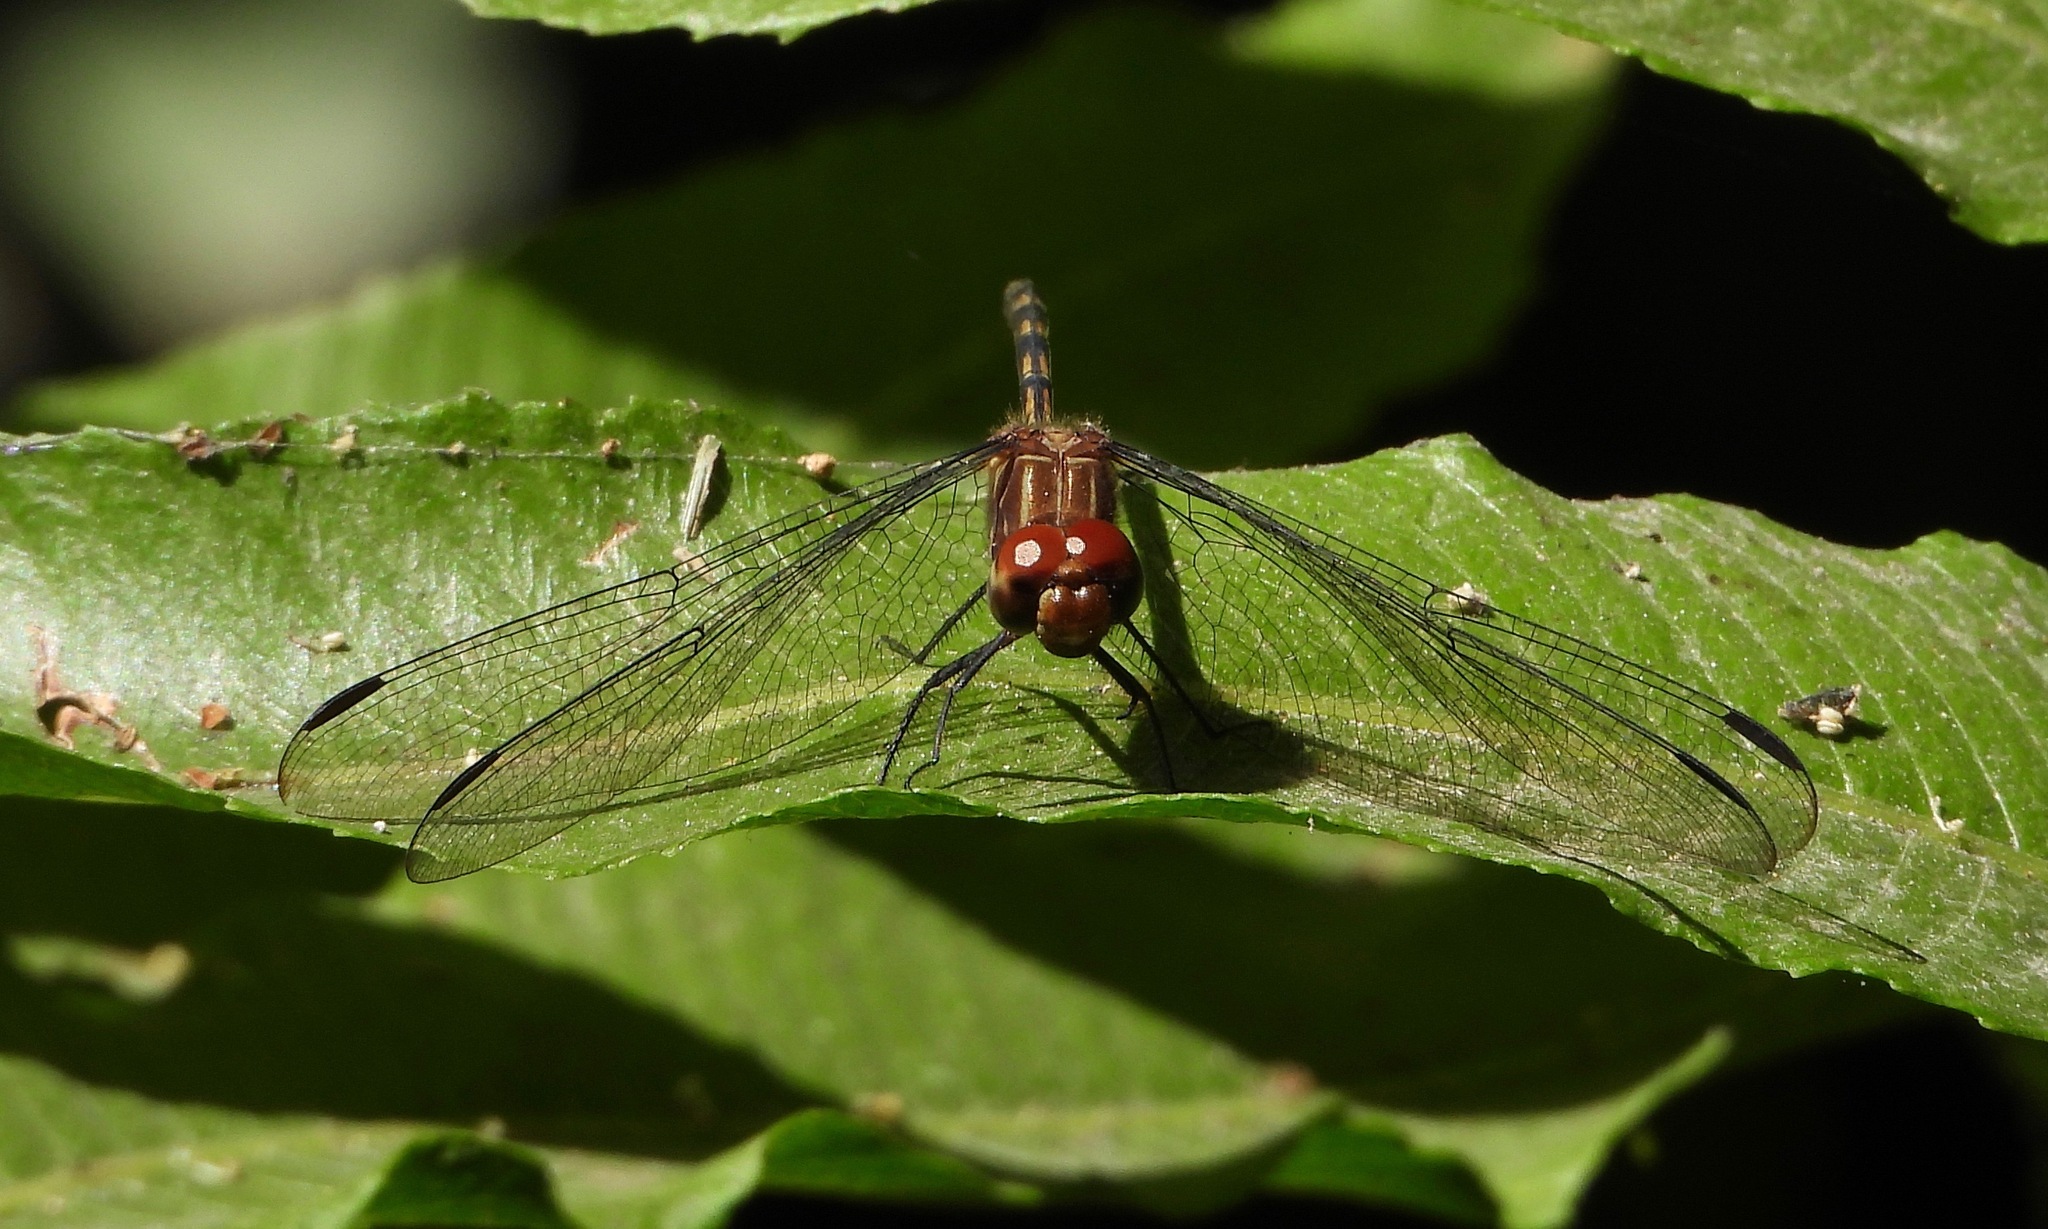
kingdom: Animalia
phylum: Arthropoda
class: Insecta
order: Odonata
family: Libellulidae
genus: Dythemis
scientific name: Dythemis sterilis
